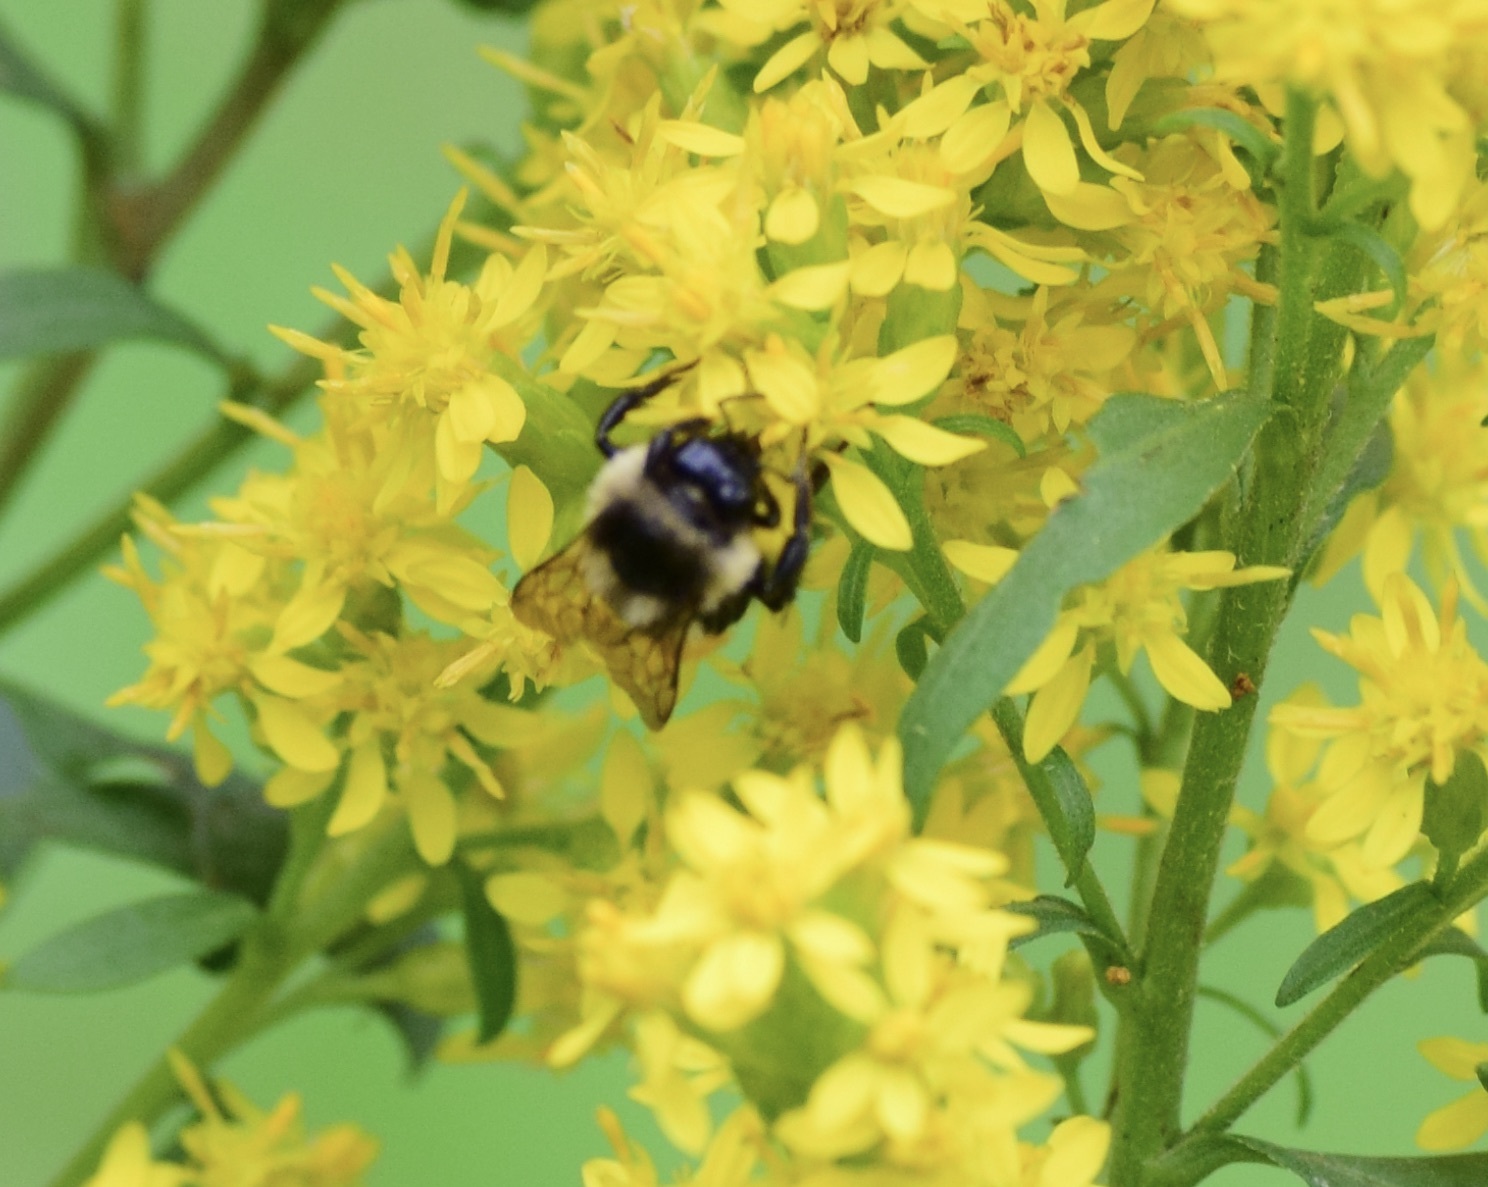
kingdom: Animalia
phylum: Arthropoda
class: Insecta
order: Hymenoptera
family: Apidae
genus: Bombus
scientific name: Bombus ternarius
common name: Tri-colored bumble bee
